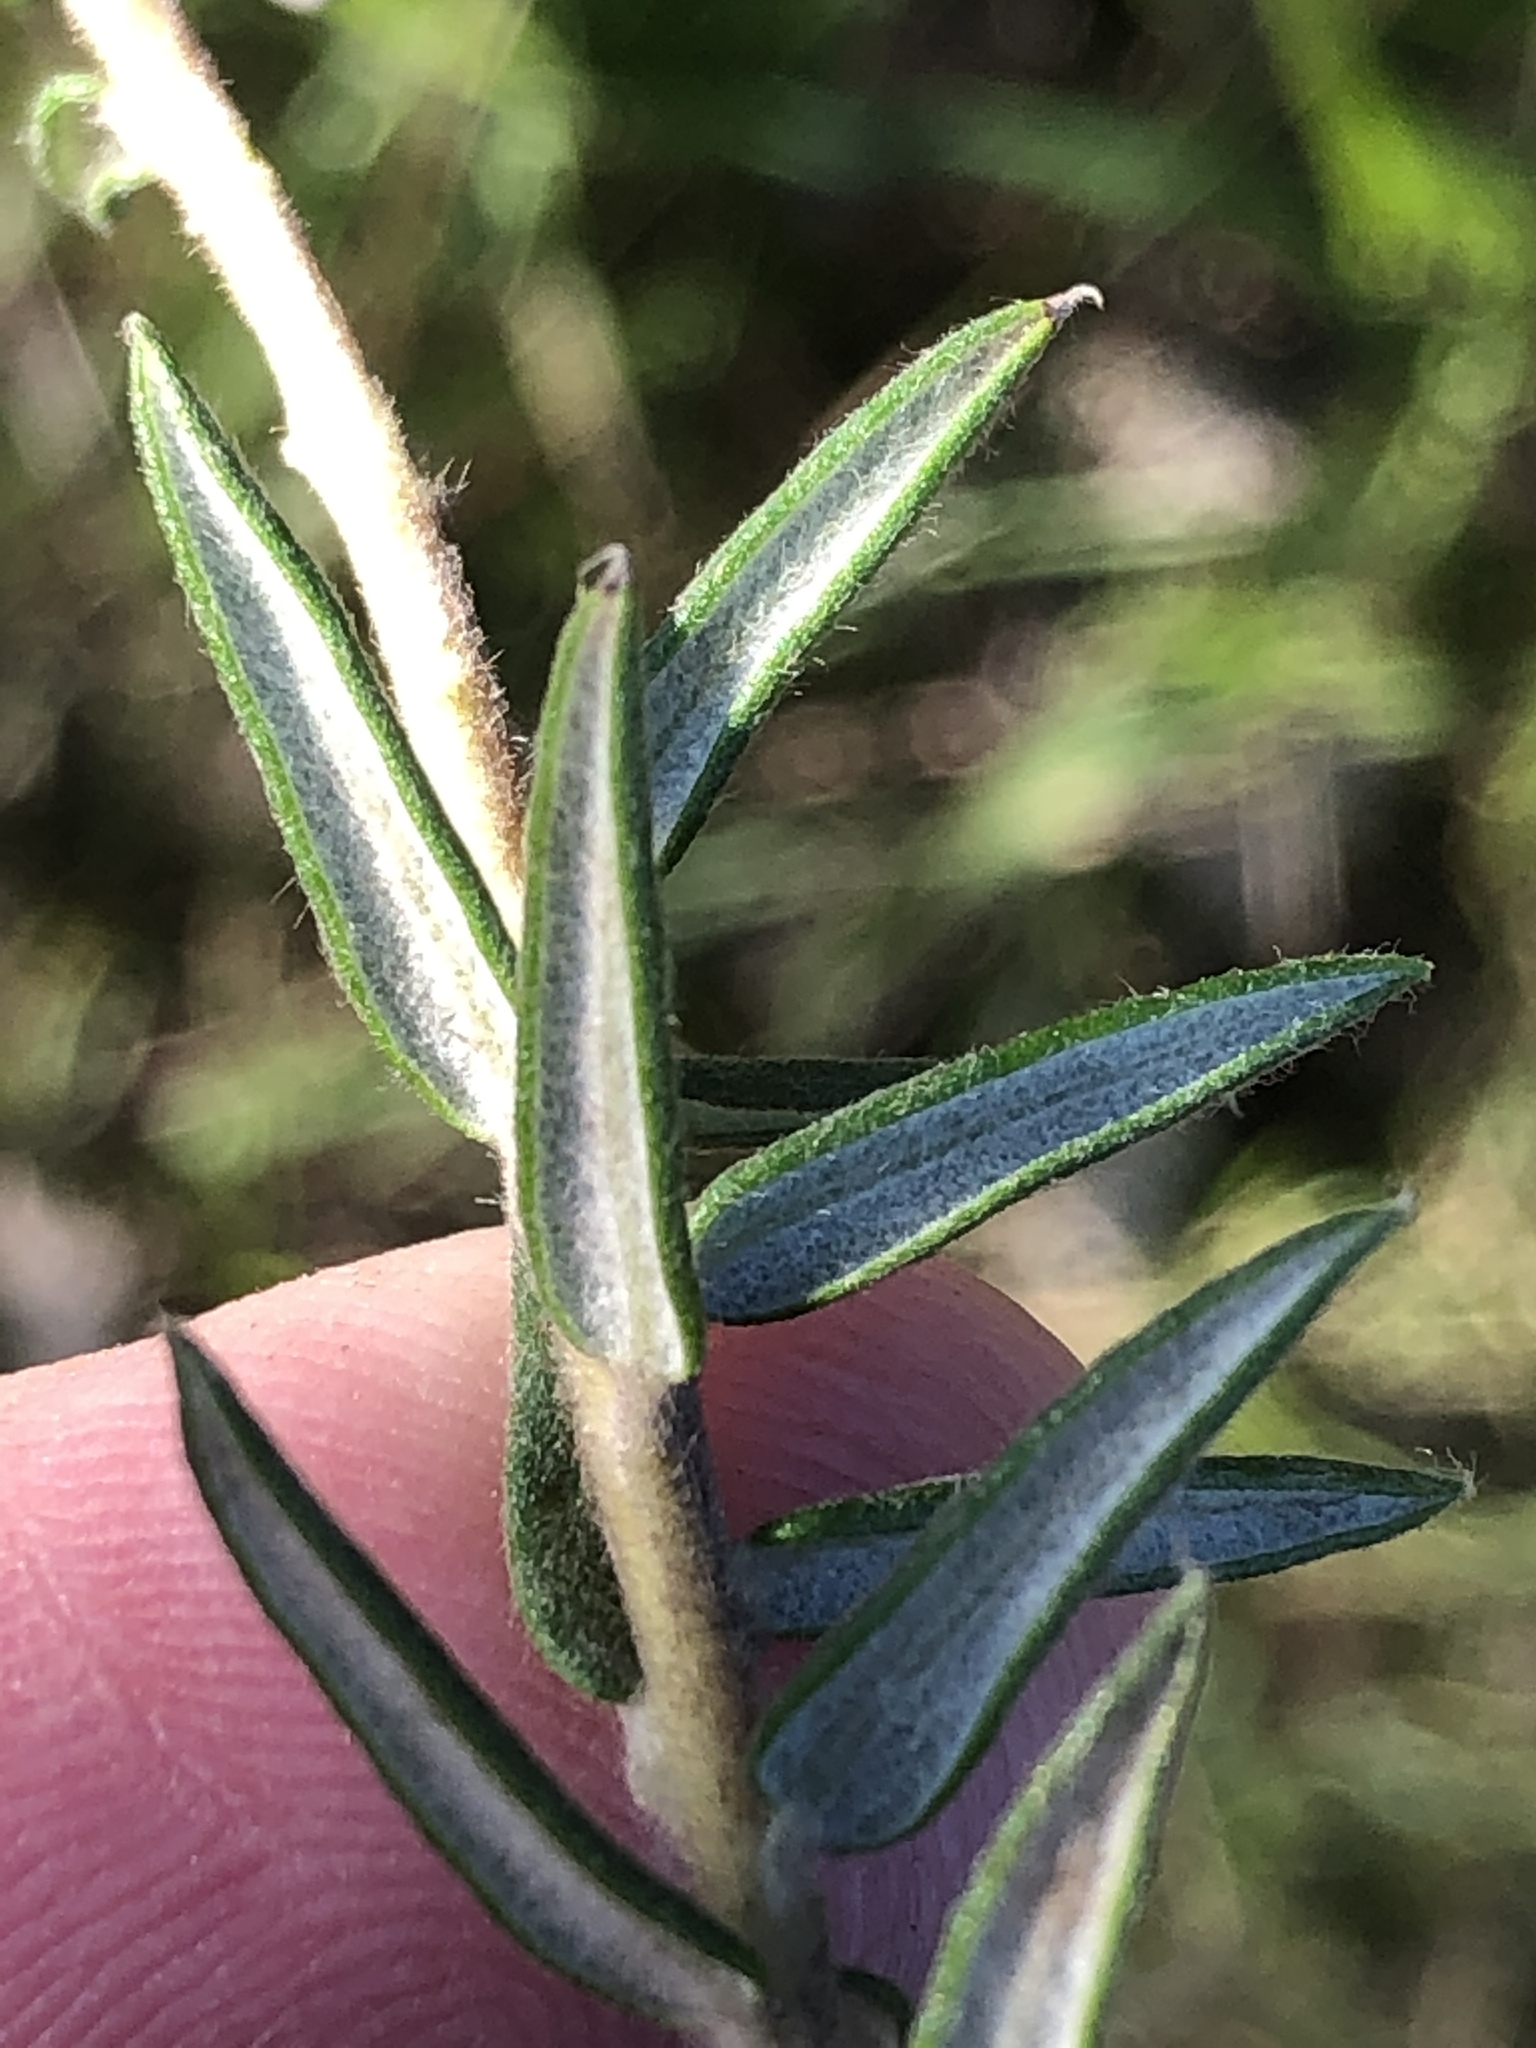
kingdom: Plantae
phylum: Tracheophyta
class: Magnoliopsida
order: Rosales
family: Rhamnaceae
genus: Phylica
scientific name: Phylica pinea
